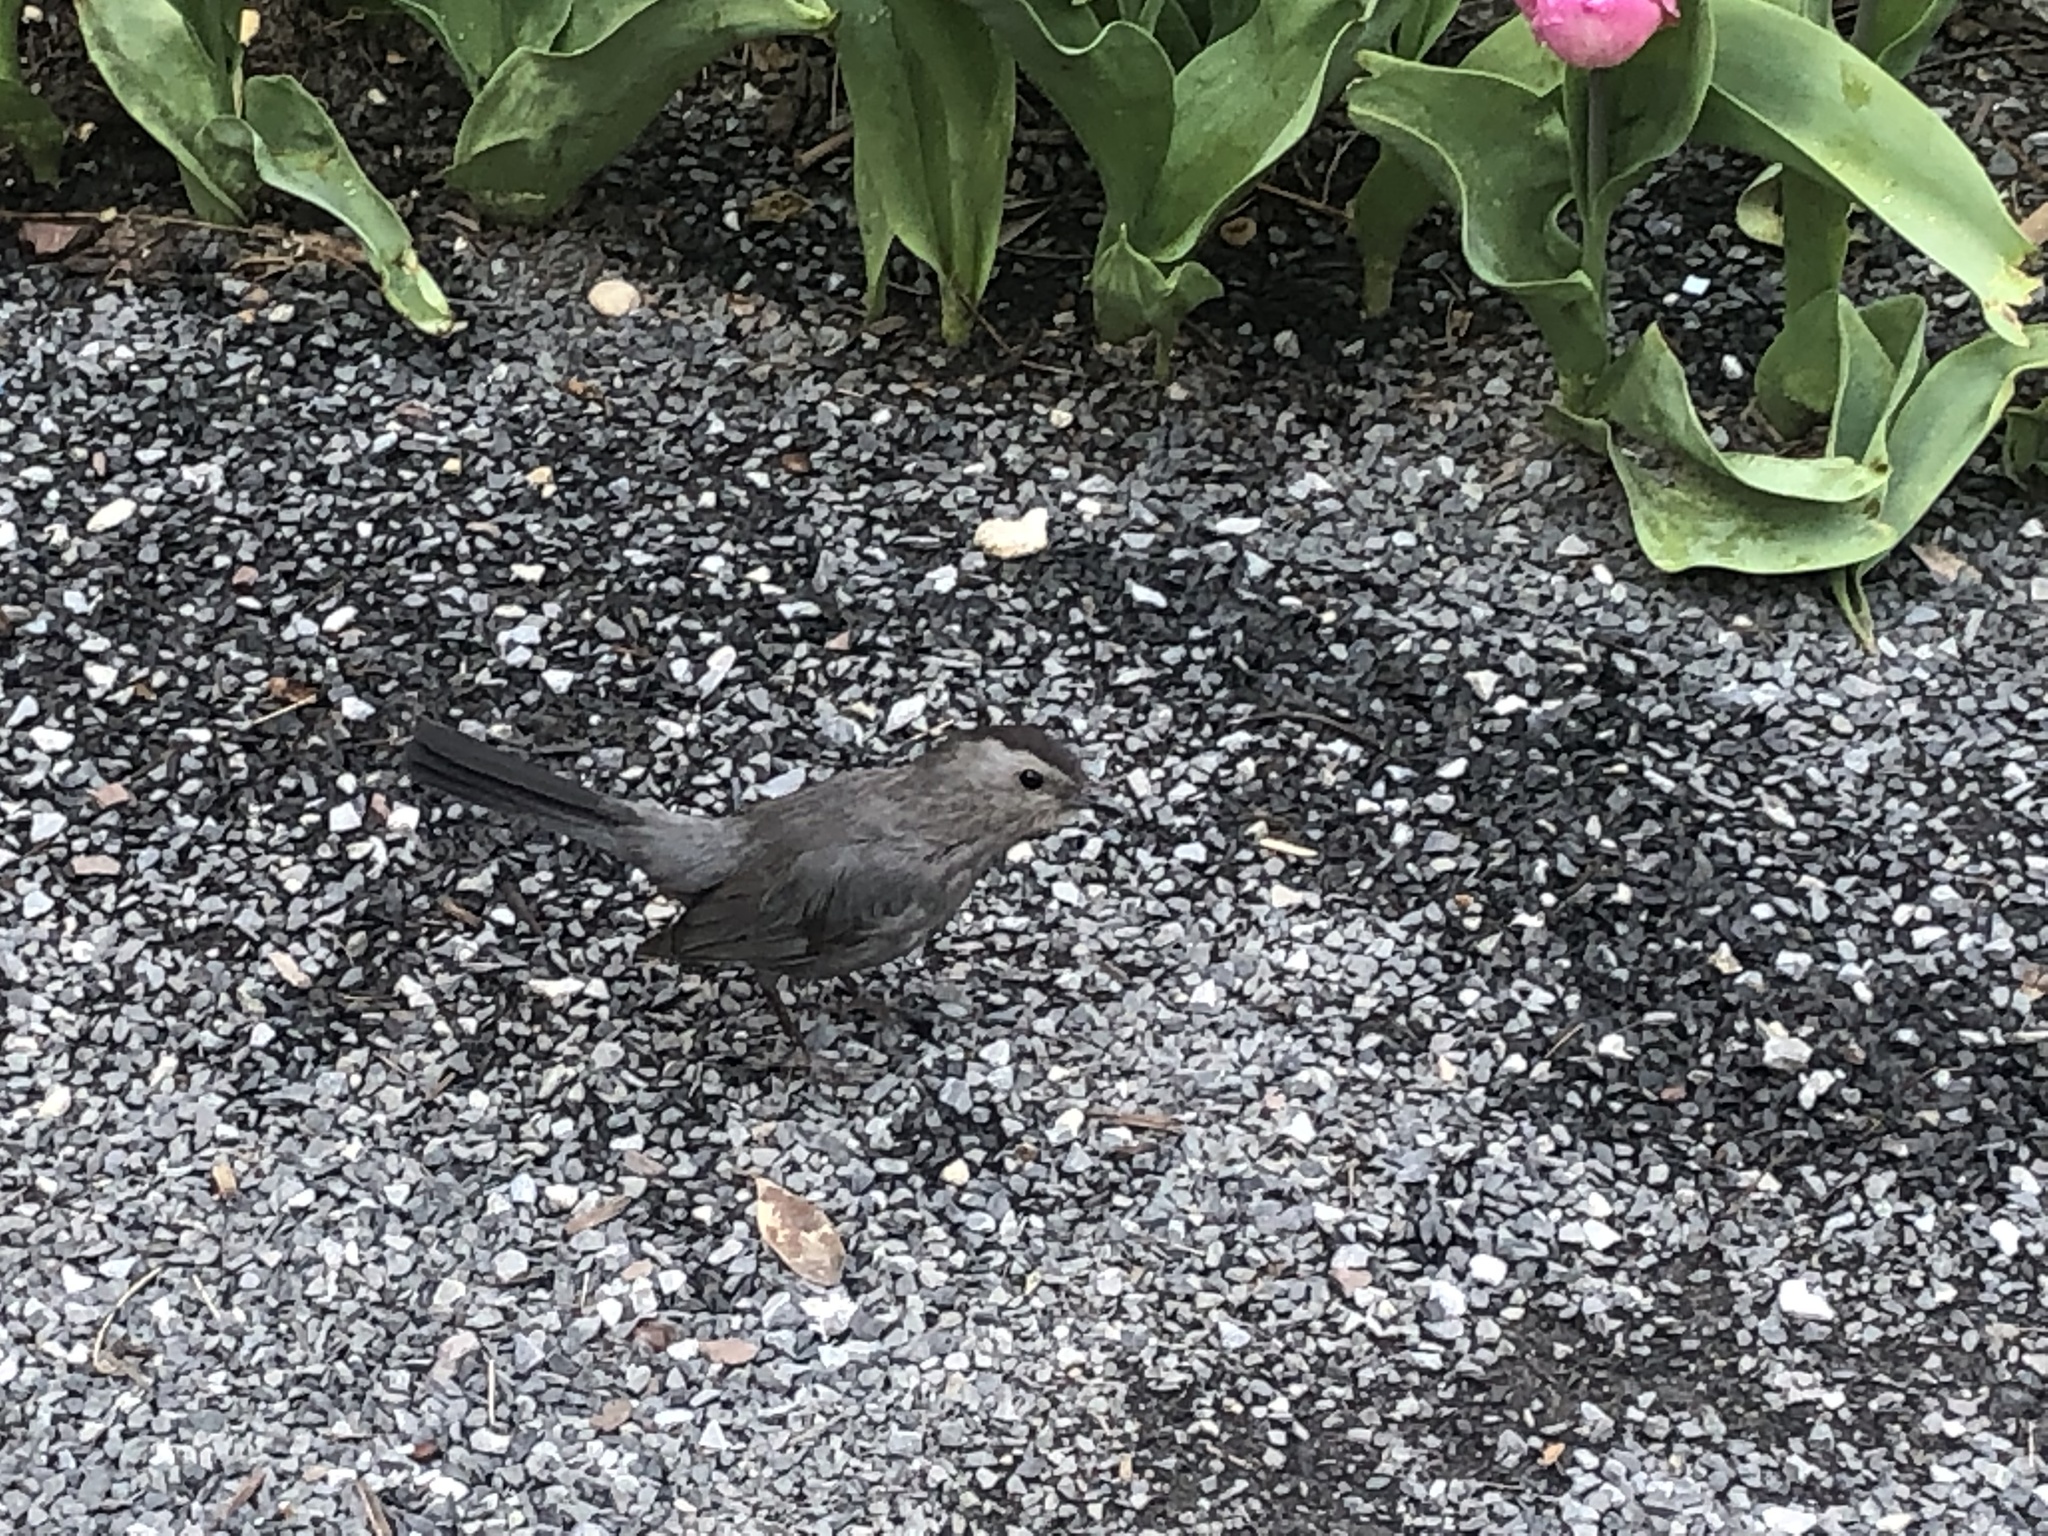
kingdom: Animalia
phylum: Chordata
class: Aves
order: Passeriformes
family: Mimidae
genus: Dumetella
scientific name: Dumetella carolinensis
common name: Gray catbird
